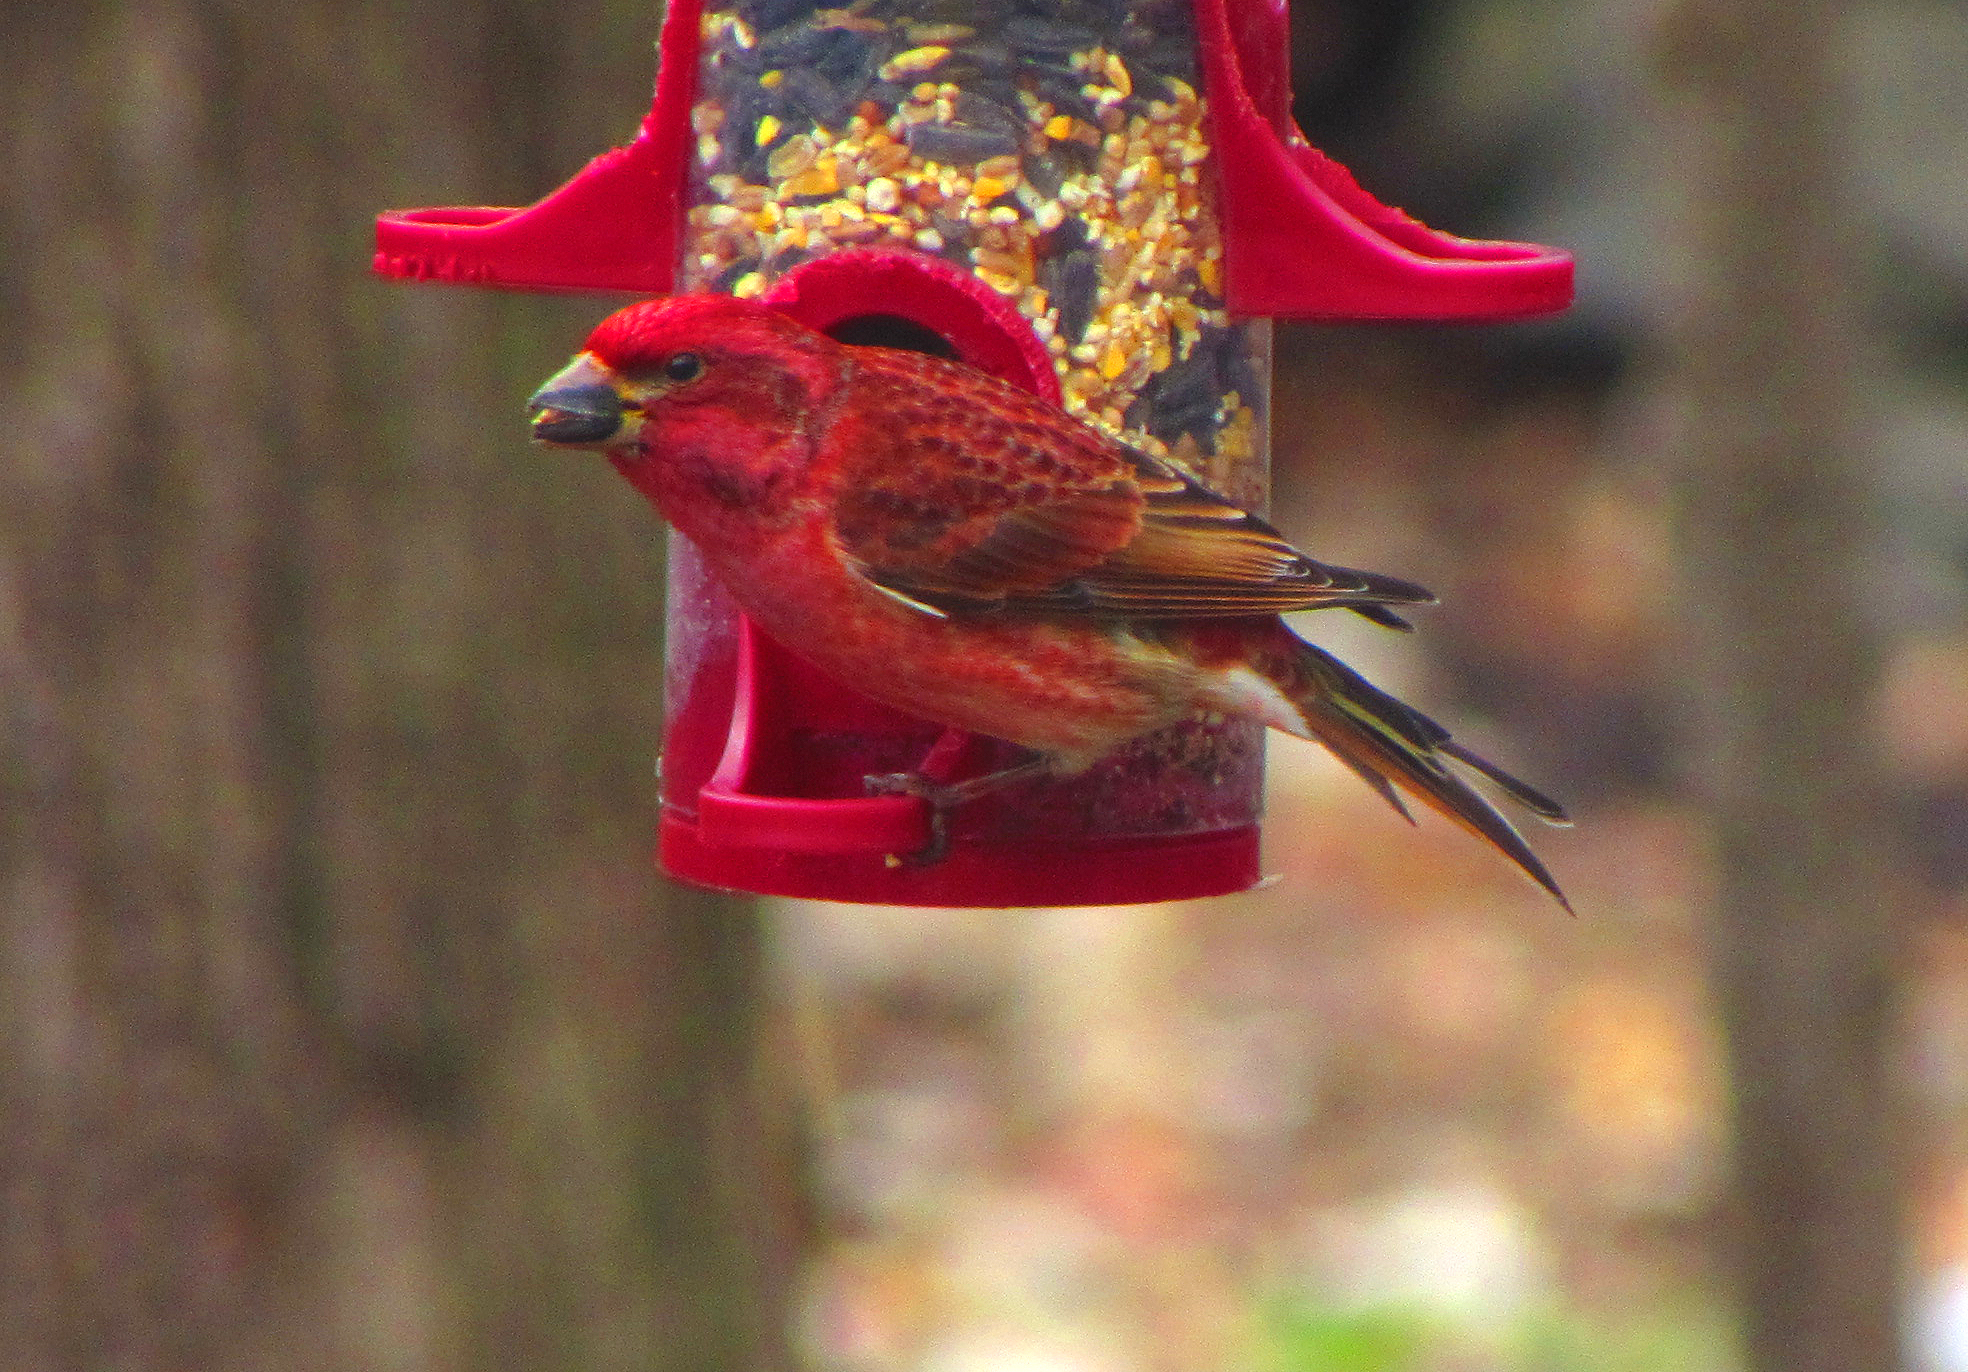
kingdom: Animalia
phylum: Chordata
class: Aves
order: Passeriformes
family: Fringillidae
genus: Haemorhous
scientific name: Haemorhous purpureus
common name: Purple finch
